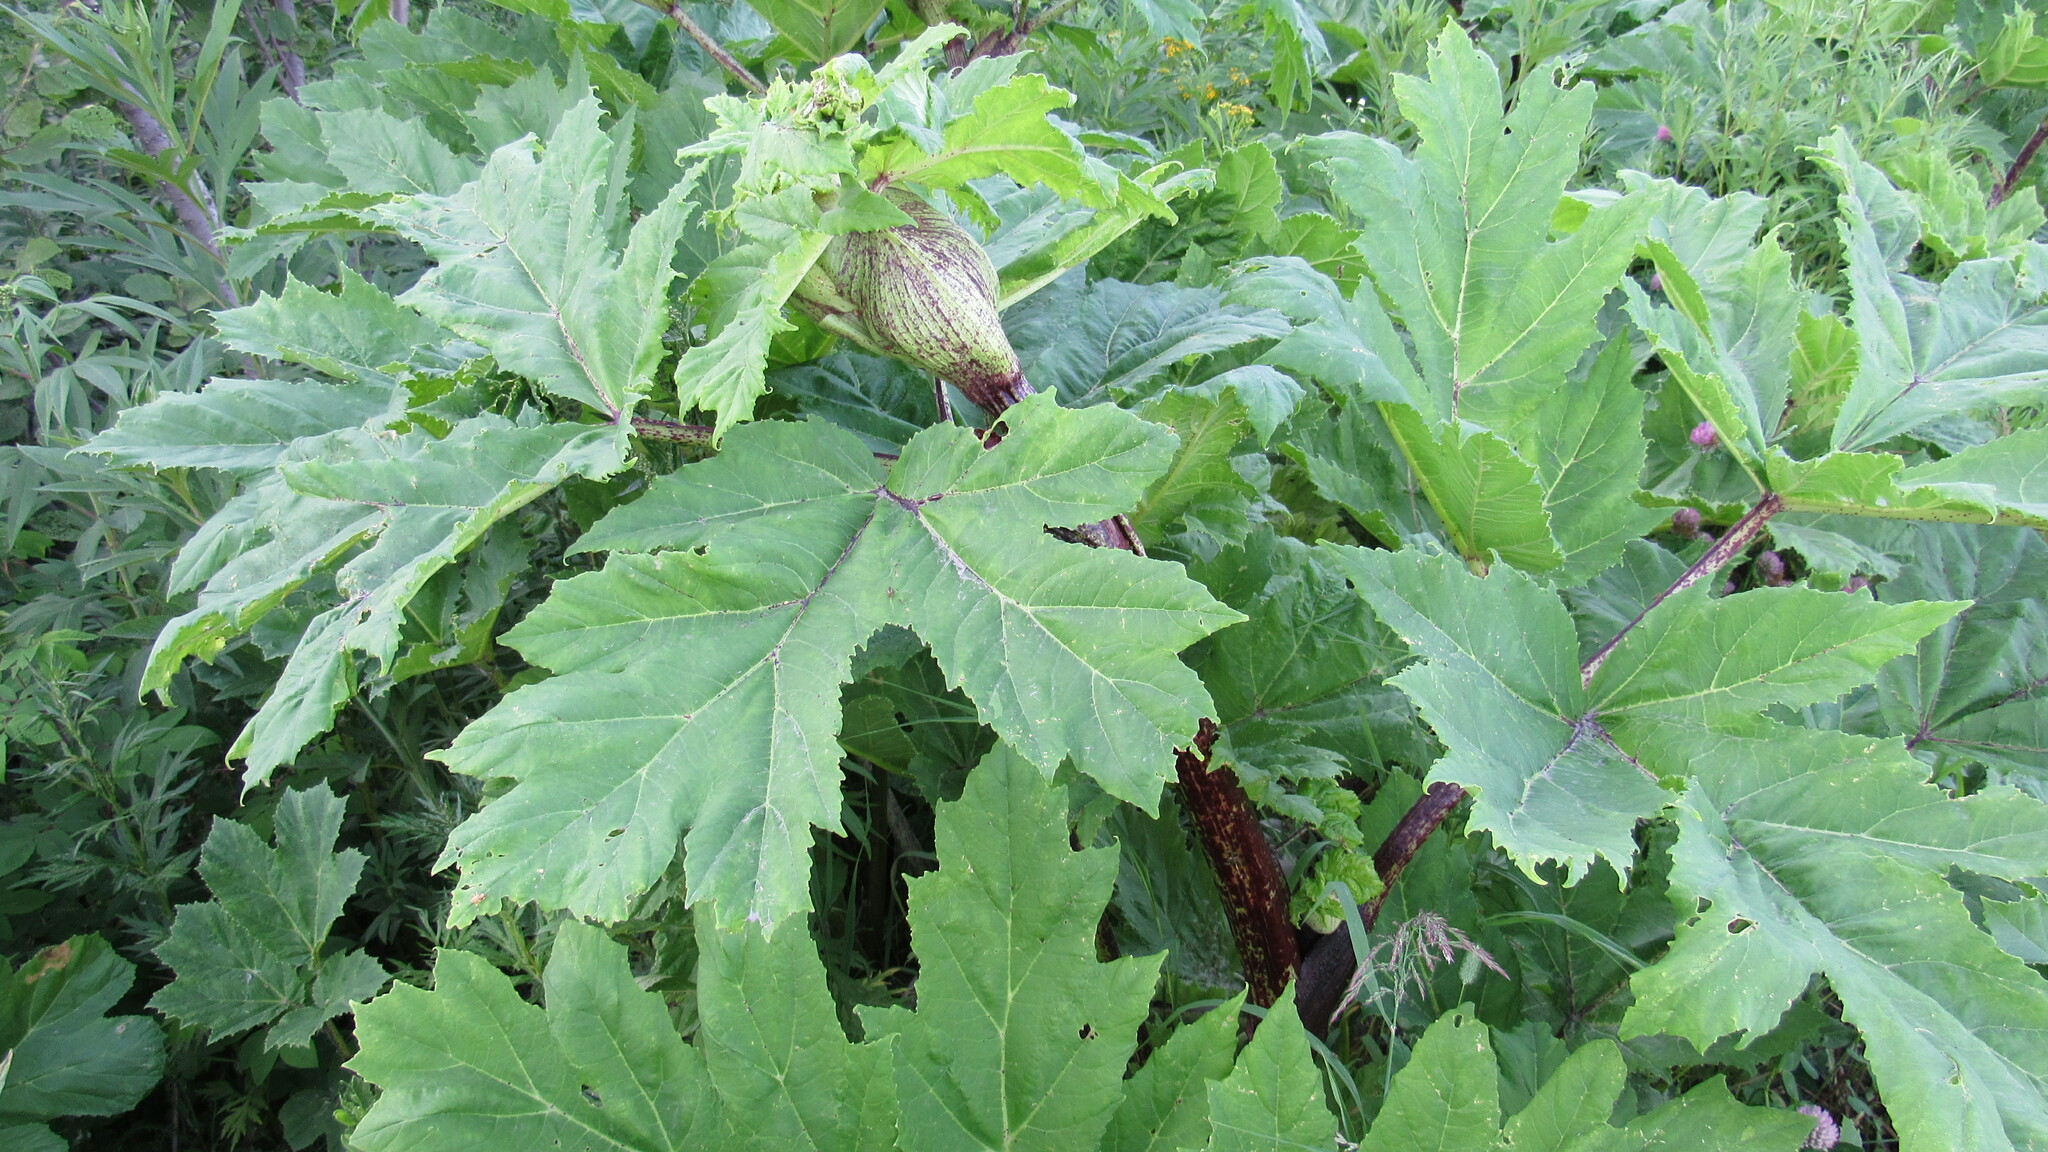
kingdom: Plantae
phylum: Tracheophyta
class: Magnoliopsida
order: Apiales
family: Apiaceae
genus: Heracleum
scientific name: Heracleum maximum
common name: American cow parsnip
